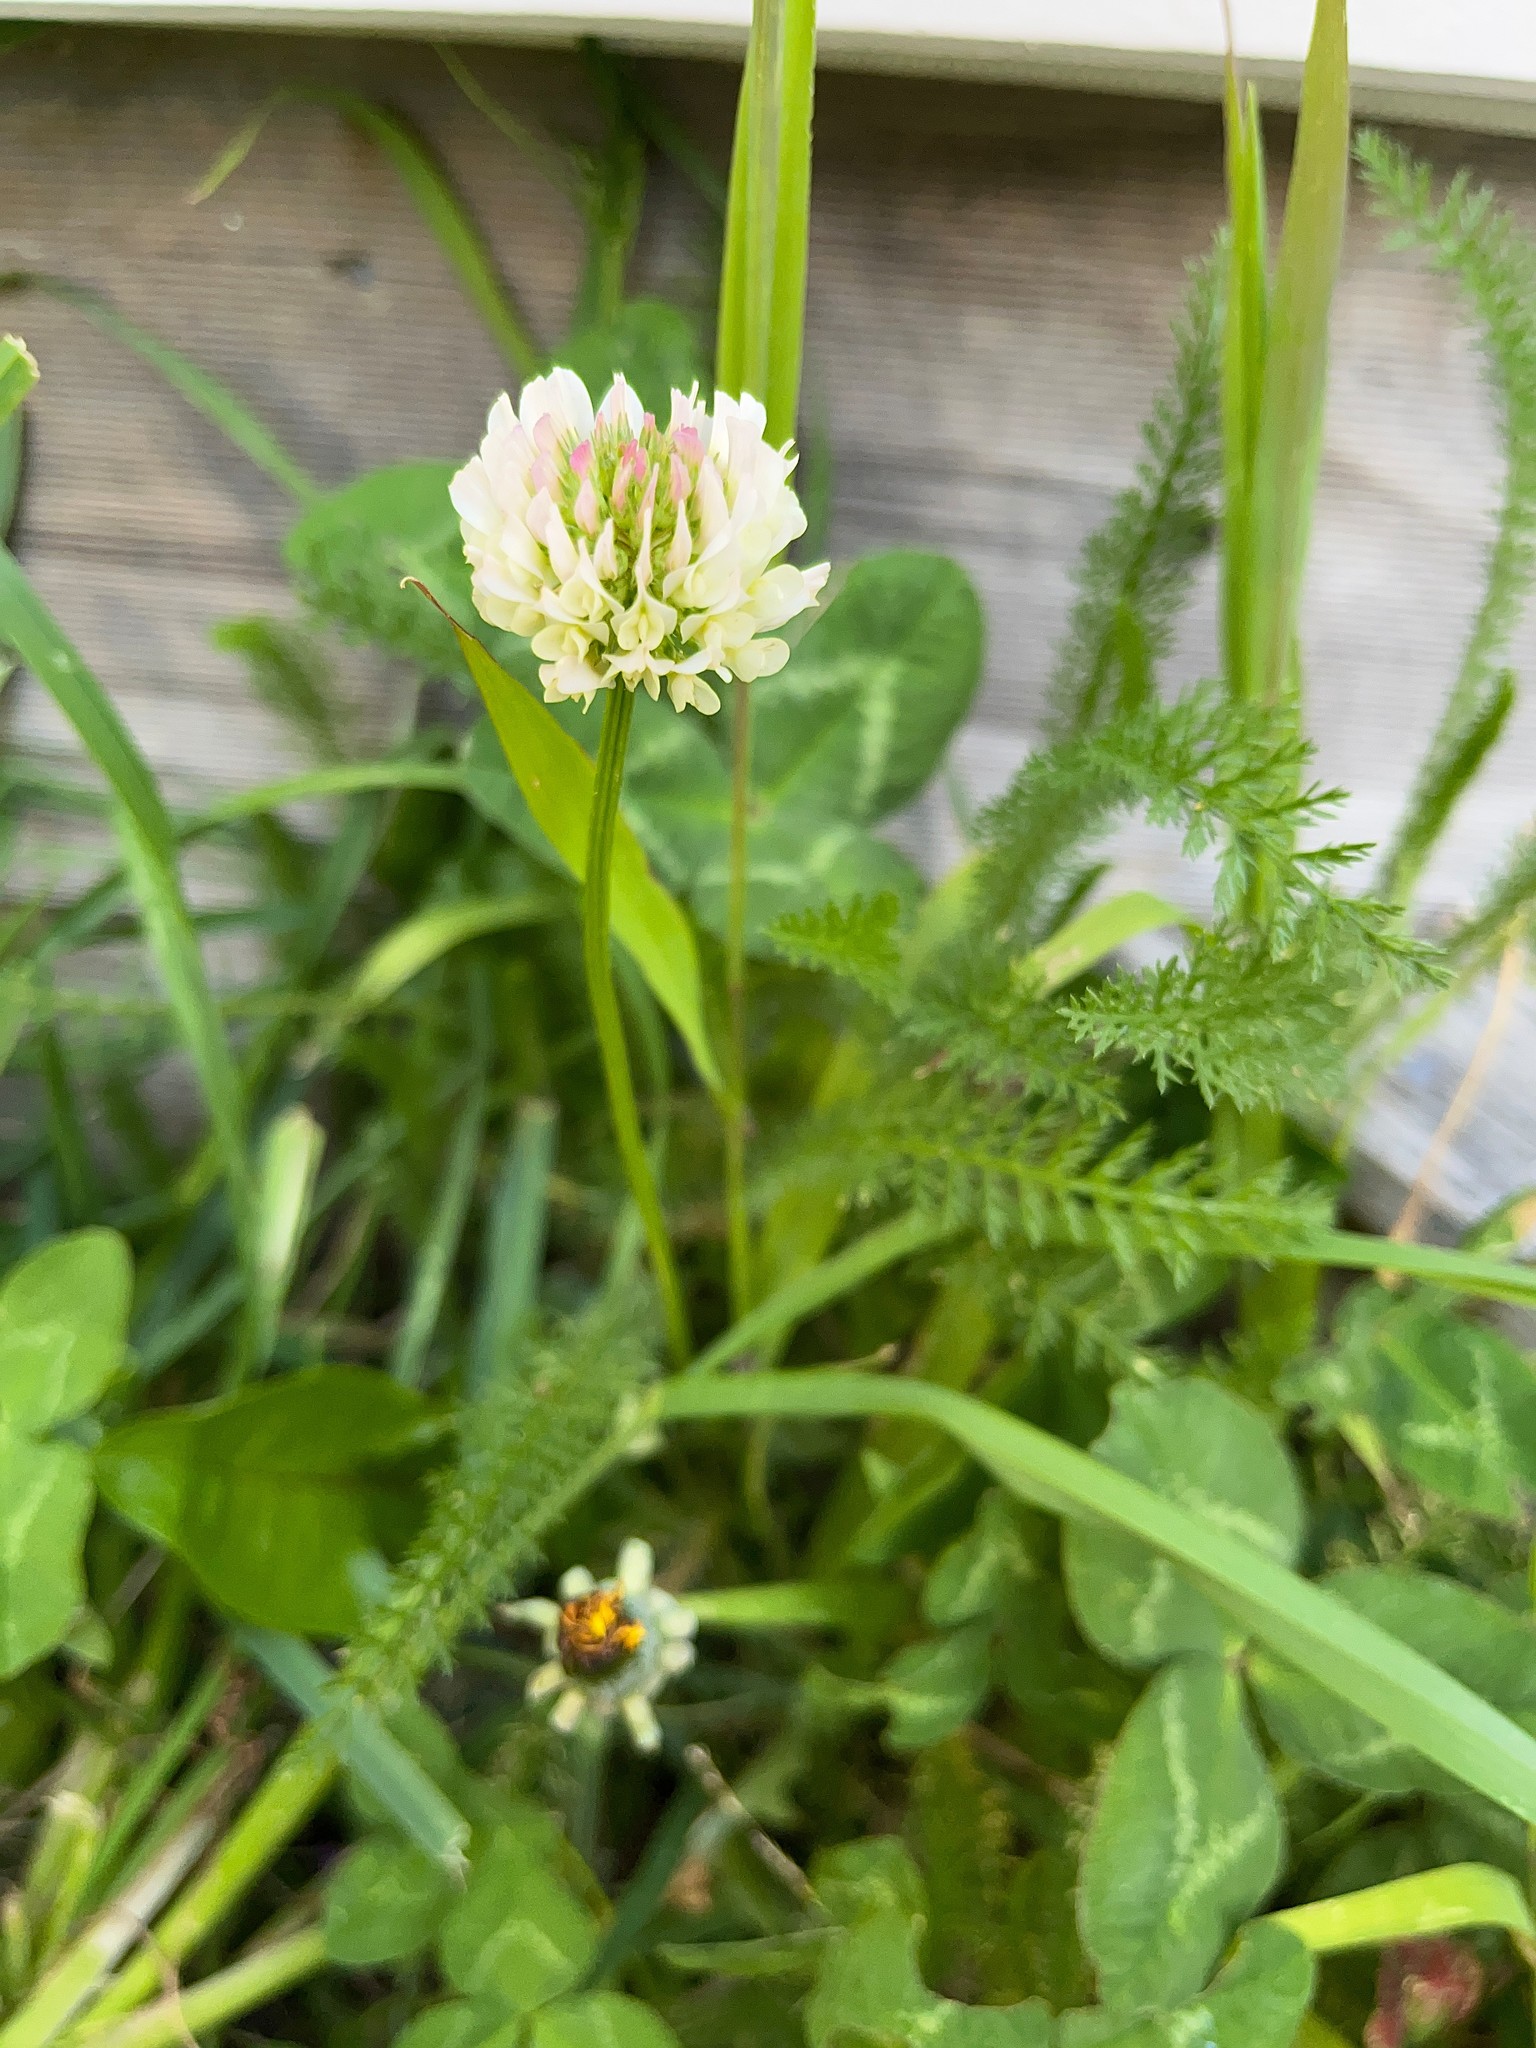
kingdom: Plantae
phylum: Tracheophyta
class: Magnoliopsida
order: Fabales
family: Fabaceae
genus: Trifolium
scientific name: Trifolium repens
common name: White clover
